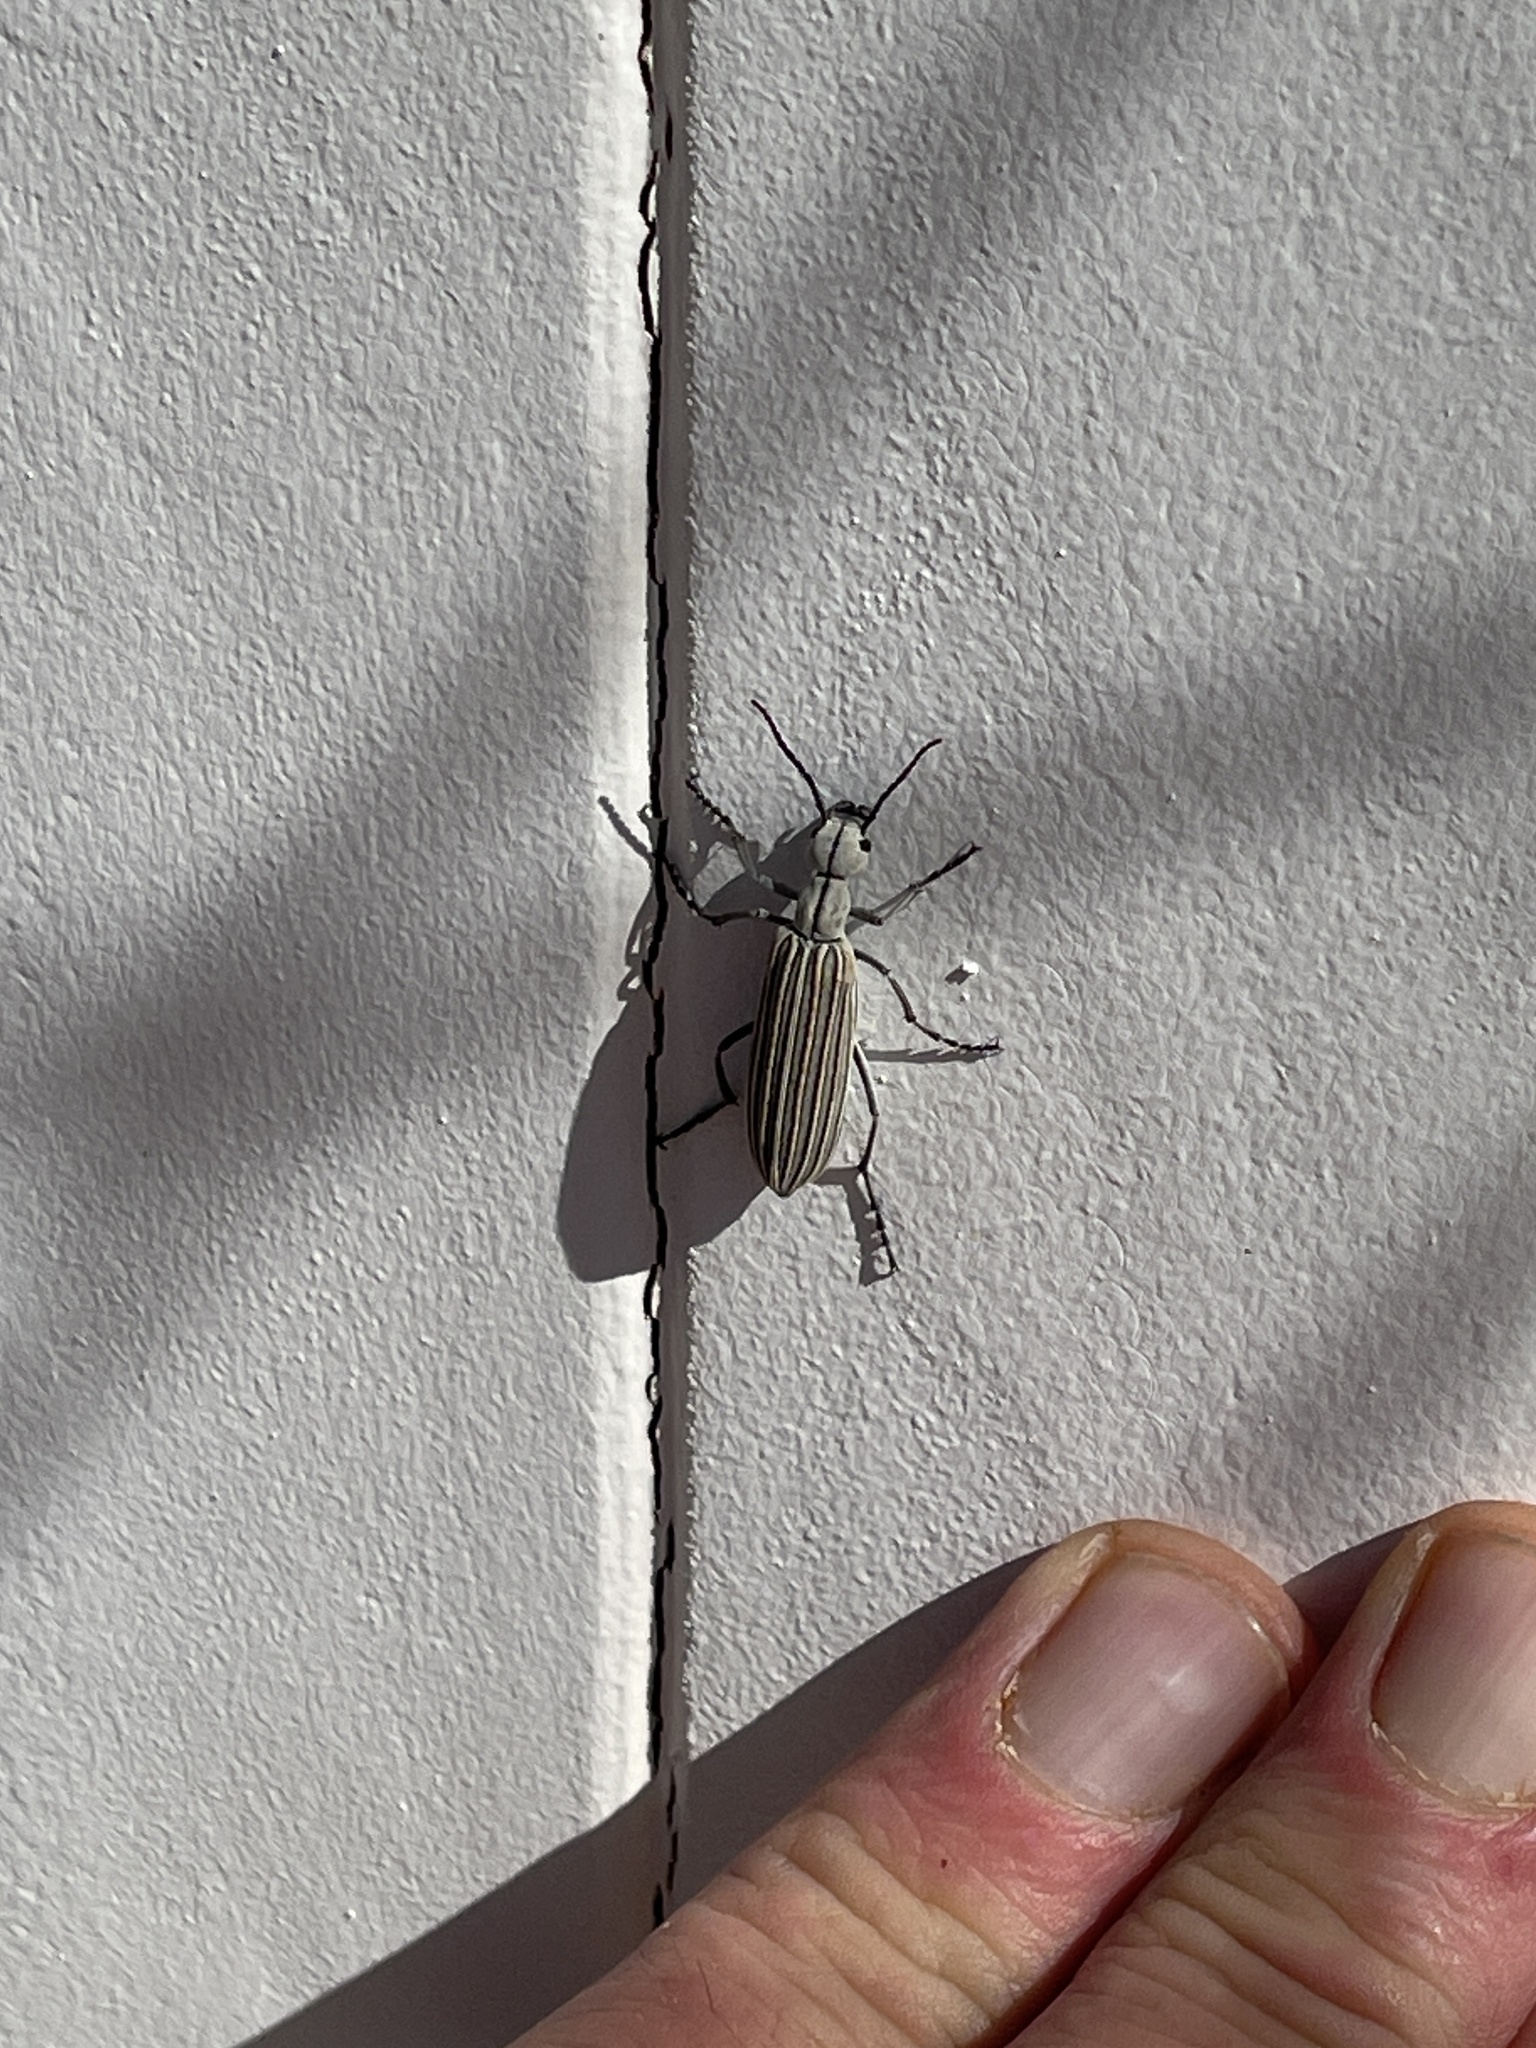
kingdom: Animalia
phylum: Arthropoda
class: Insecta
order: Coleoptera
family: Meloidae
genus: Epicauta
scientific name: Epicauta costata
